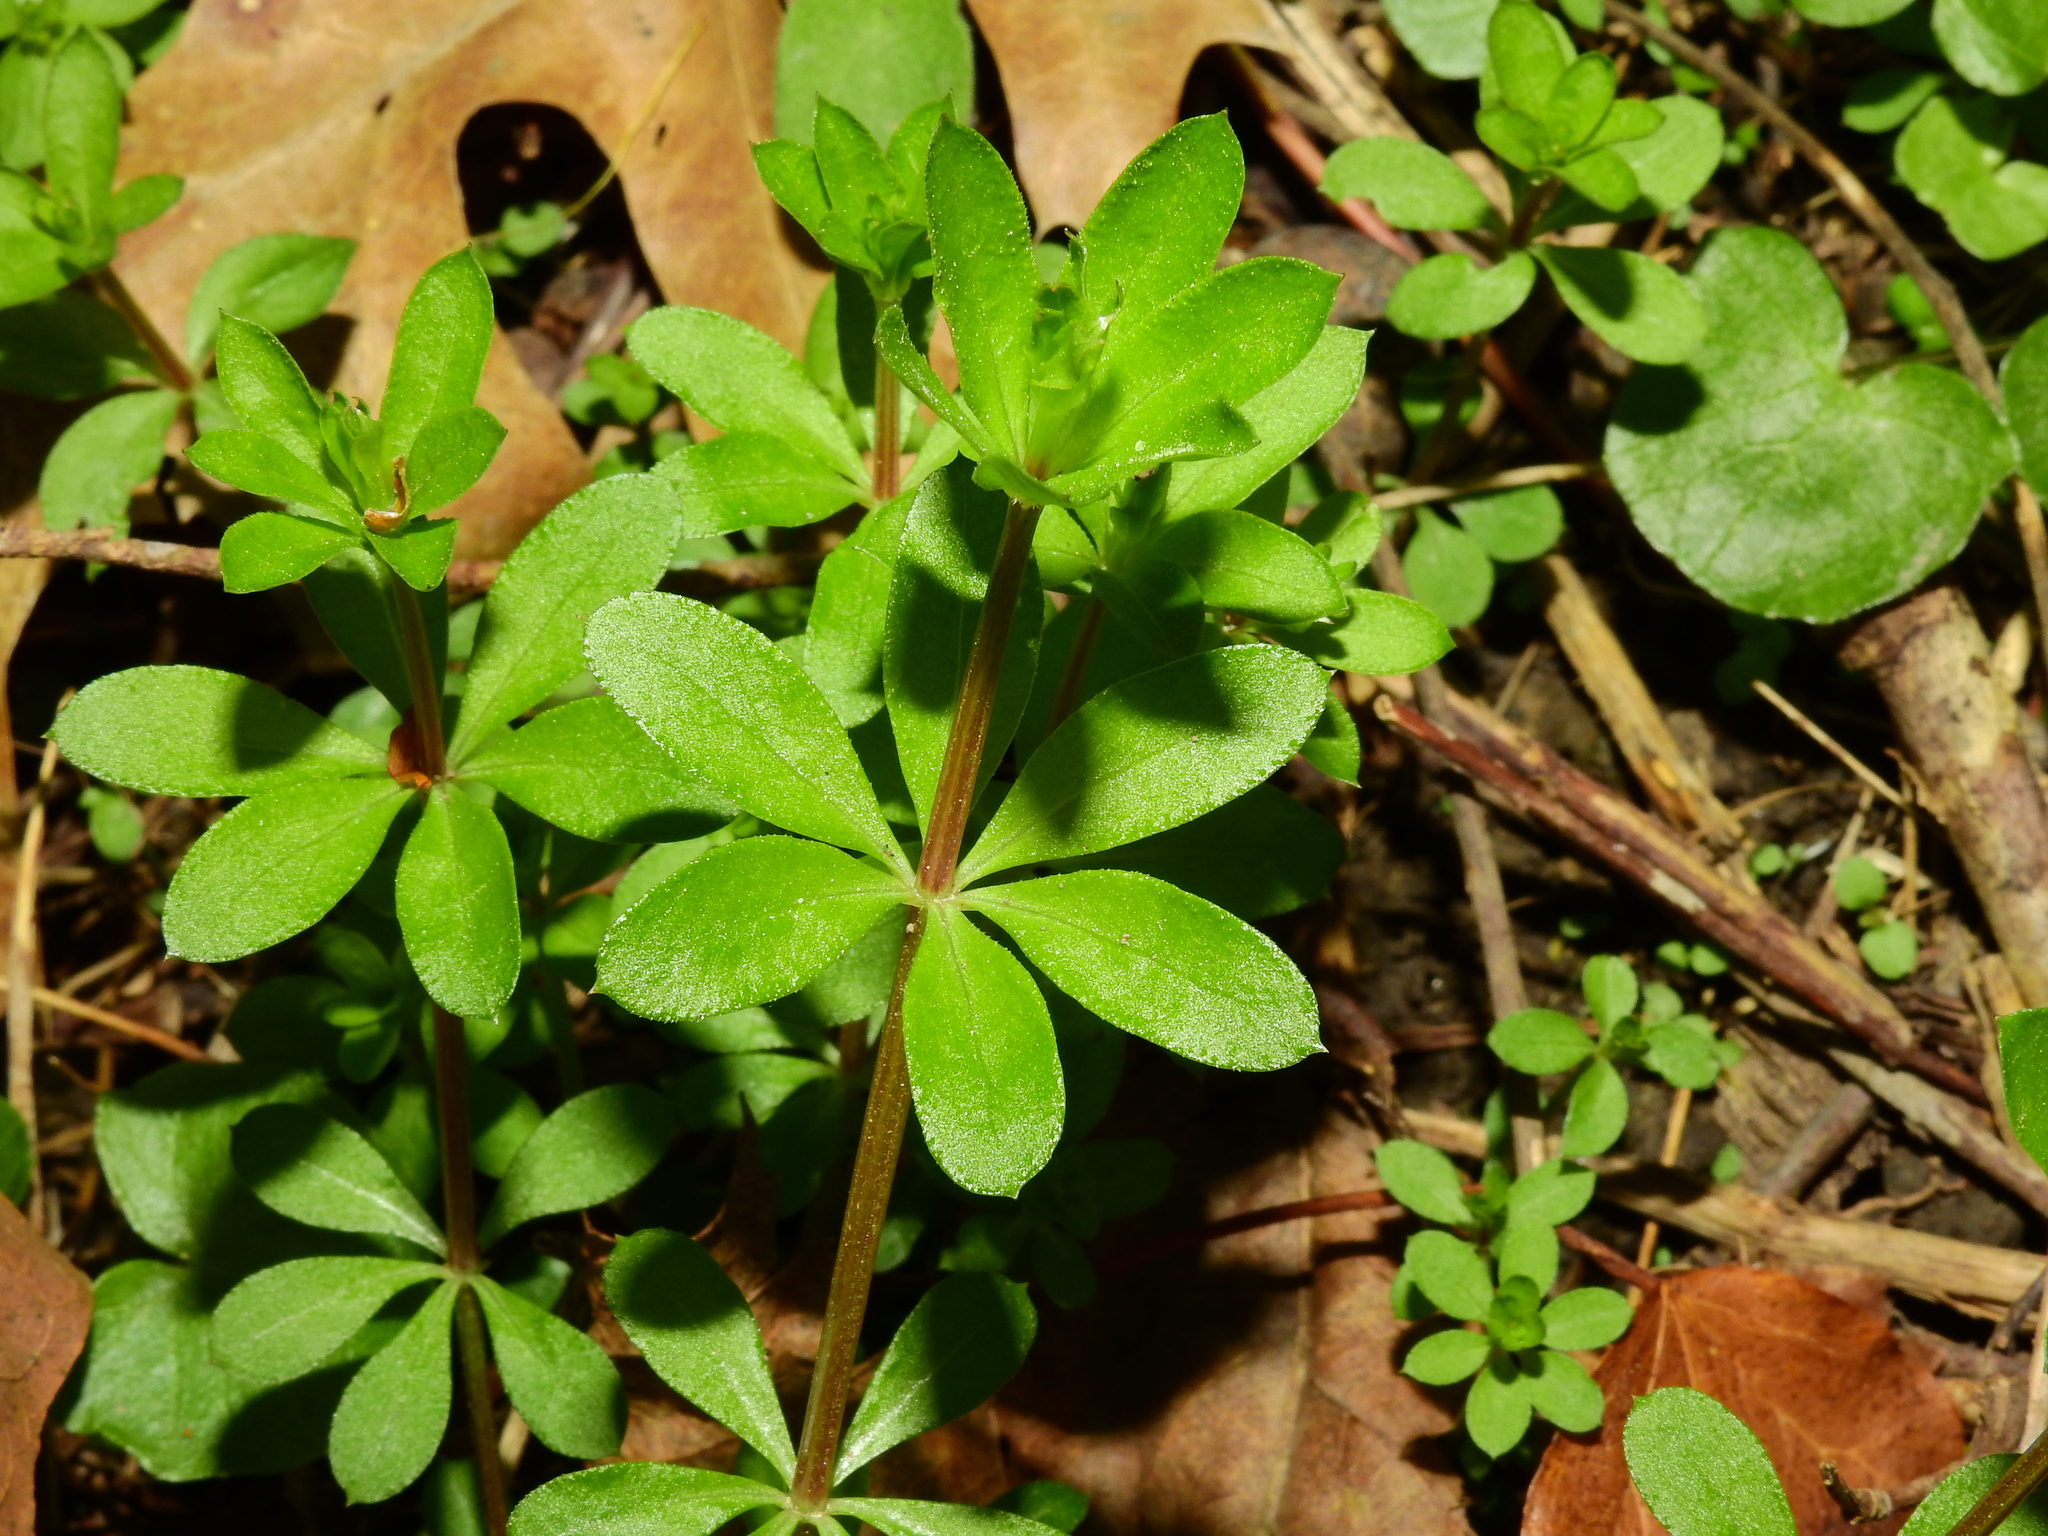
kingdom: Plantae
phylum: Tracheophyta
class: Magnoliopsida
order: Gentianales
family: Rubiaceae
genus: Galium
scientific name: Galium triflorum
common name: Fragrant bedstraw
